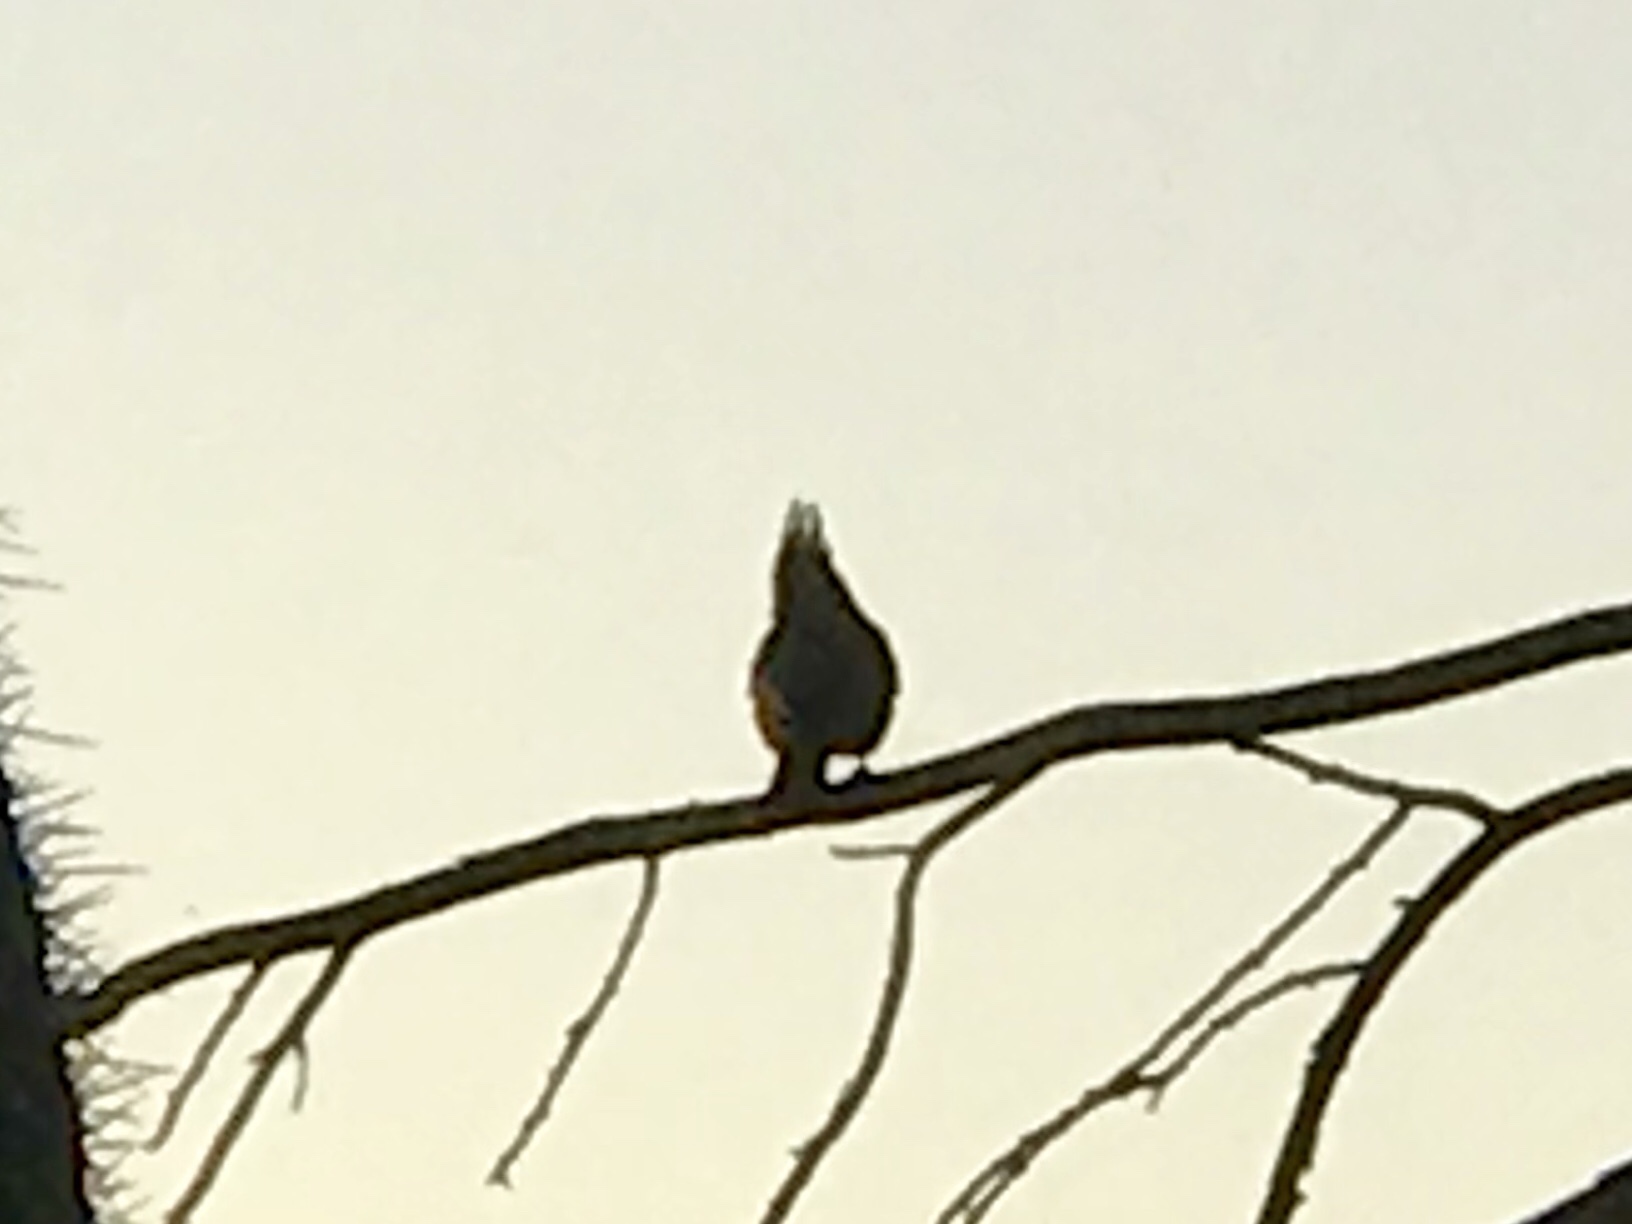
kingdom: Animalia
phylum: Chordata
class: Aves
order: Passeriformes
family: Ptilogonatidae
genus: Phainopepla
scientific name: Phainopepla nitens
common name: Phainopepla
